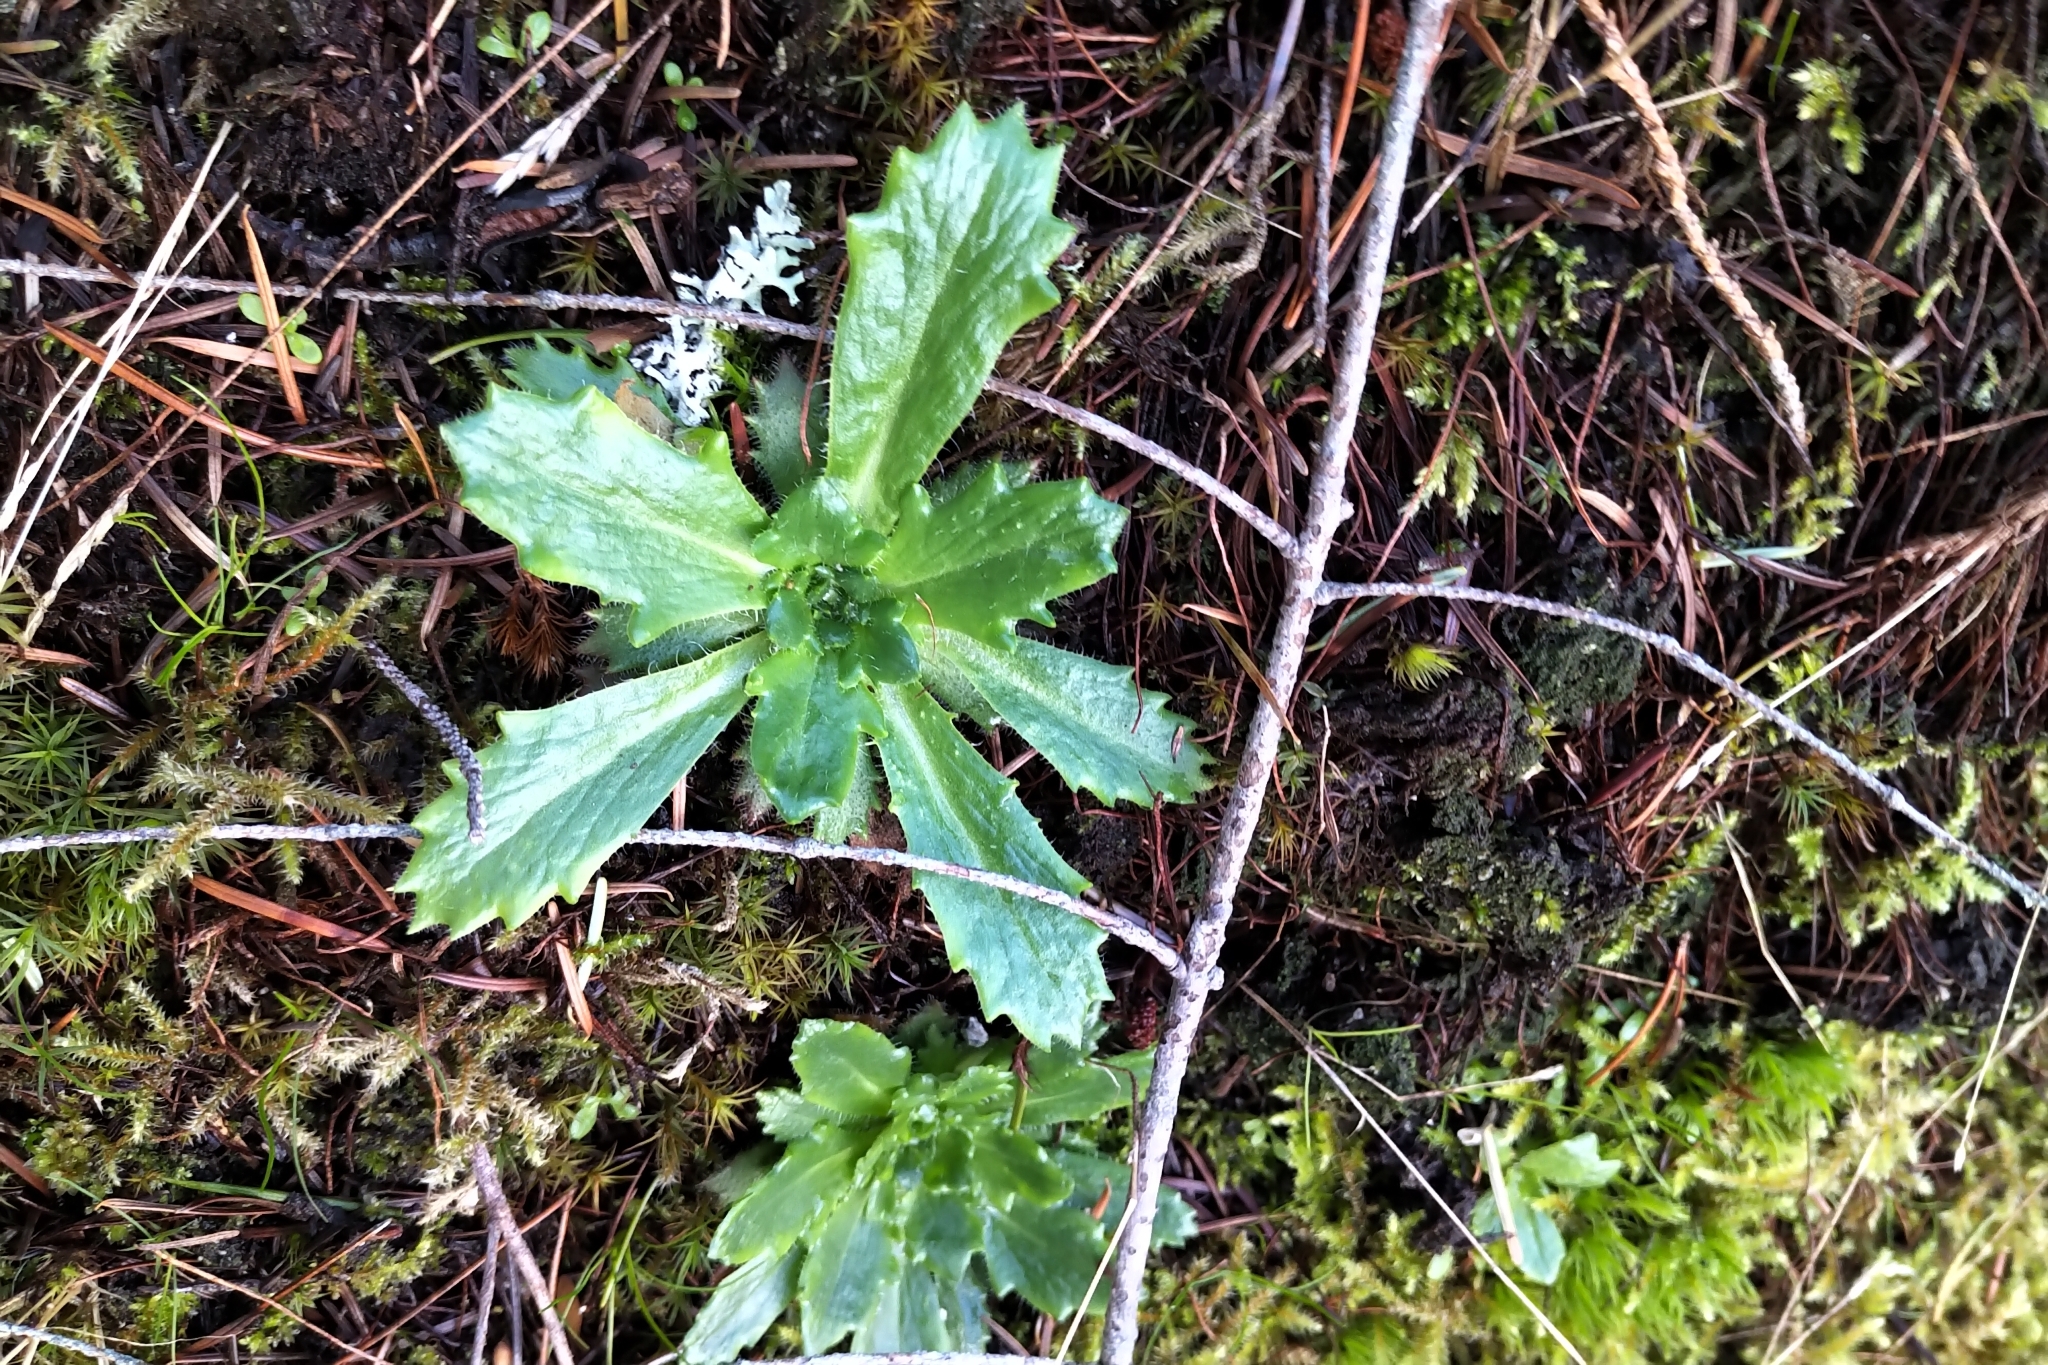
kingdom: Plantae
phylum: Tracheophyta
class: Magnoliopsida
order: Saxifragales
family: Saxifragaceae
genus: Micranthes
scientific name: Micranthes ferruginea
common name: Rusty saxifrage
